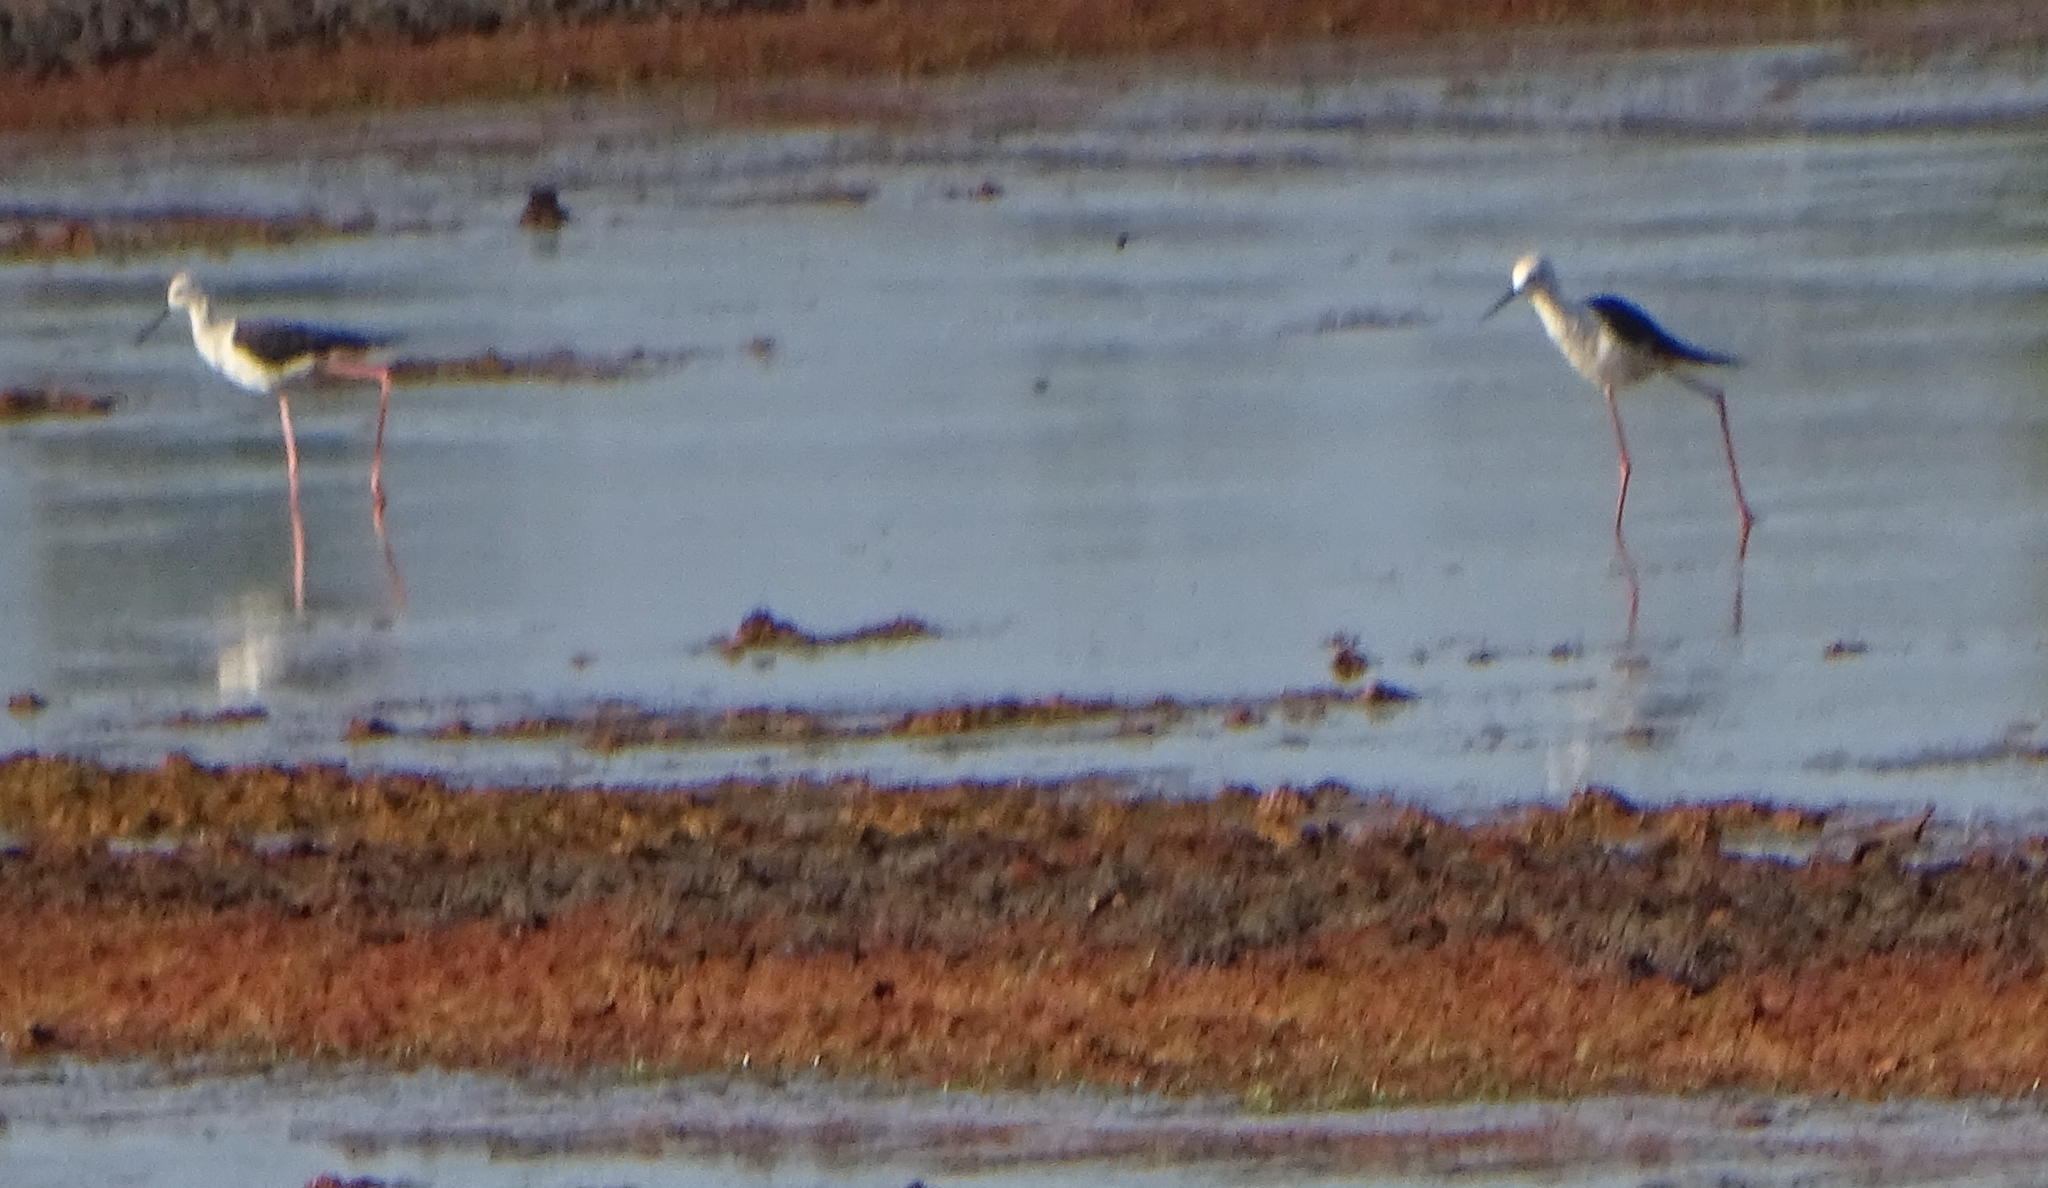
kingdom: Animalia
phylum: Chordata
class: Aves
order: Charadriiformes
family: Recurvirostridae
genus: Himantopus
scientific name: Himantopus himantopus
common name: Black-winged stilt
